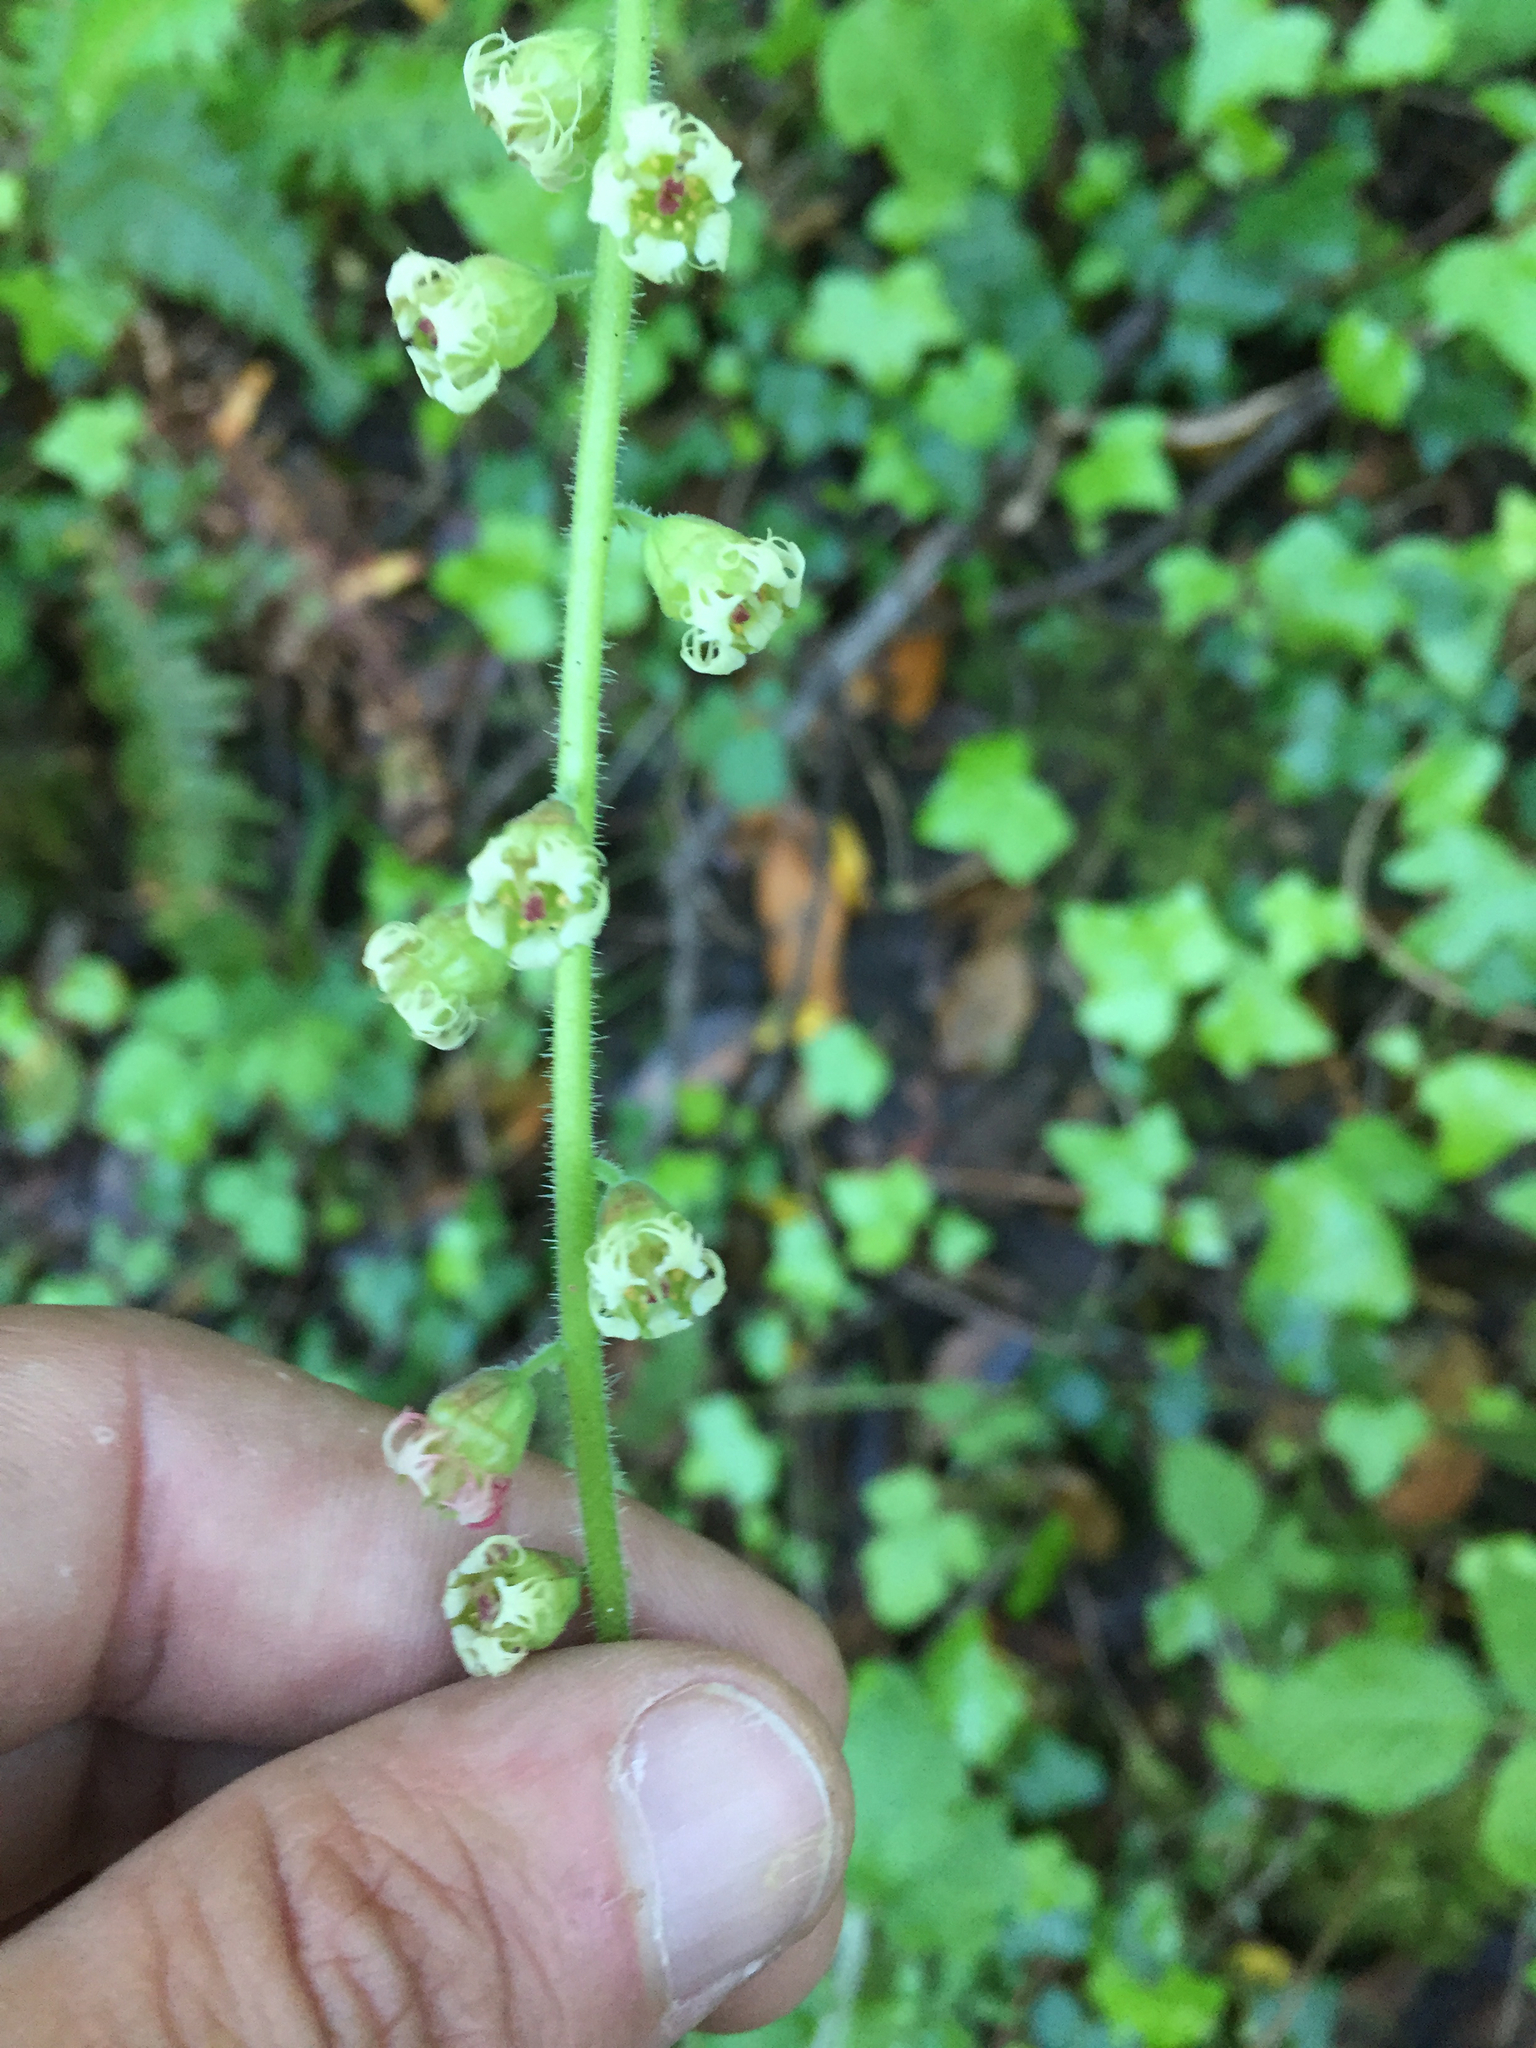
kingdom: Plantae
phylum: Tracheophyta
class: Magnoliopsida
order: Saxifragales
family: Saxifragaceae
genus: Tellima
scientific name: Tellima grandiflora
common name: Fringecups
